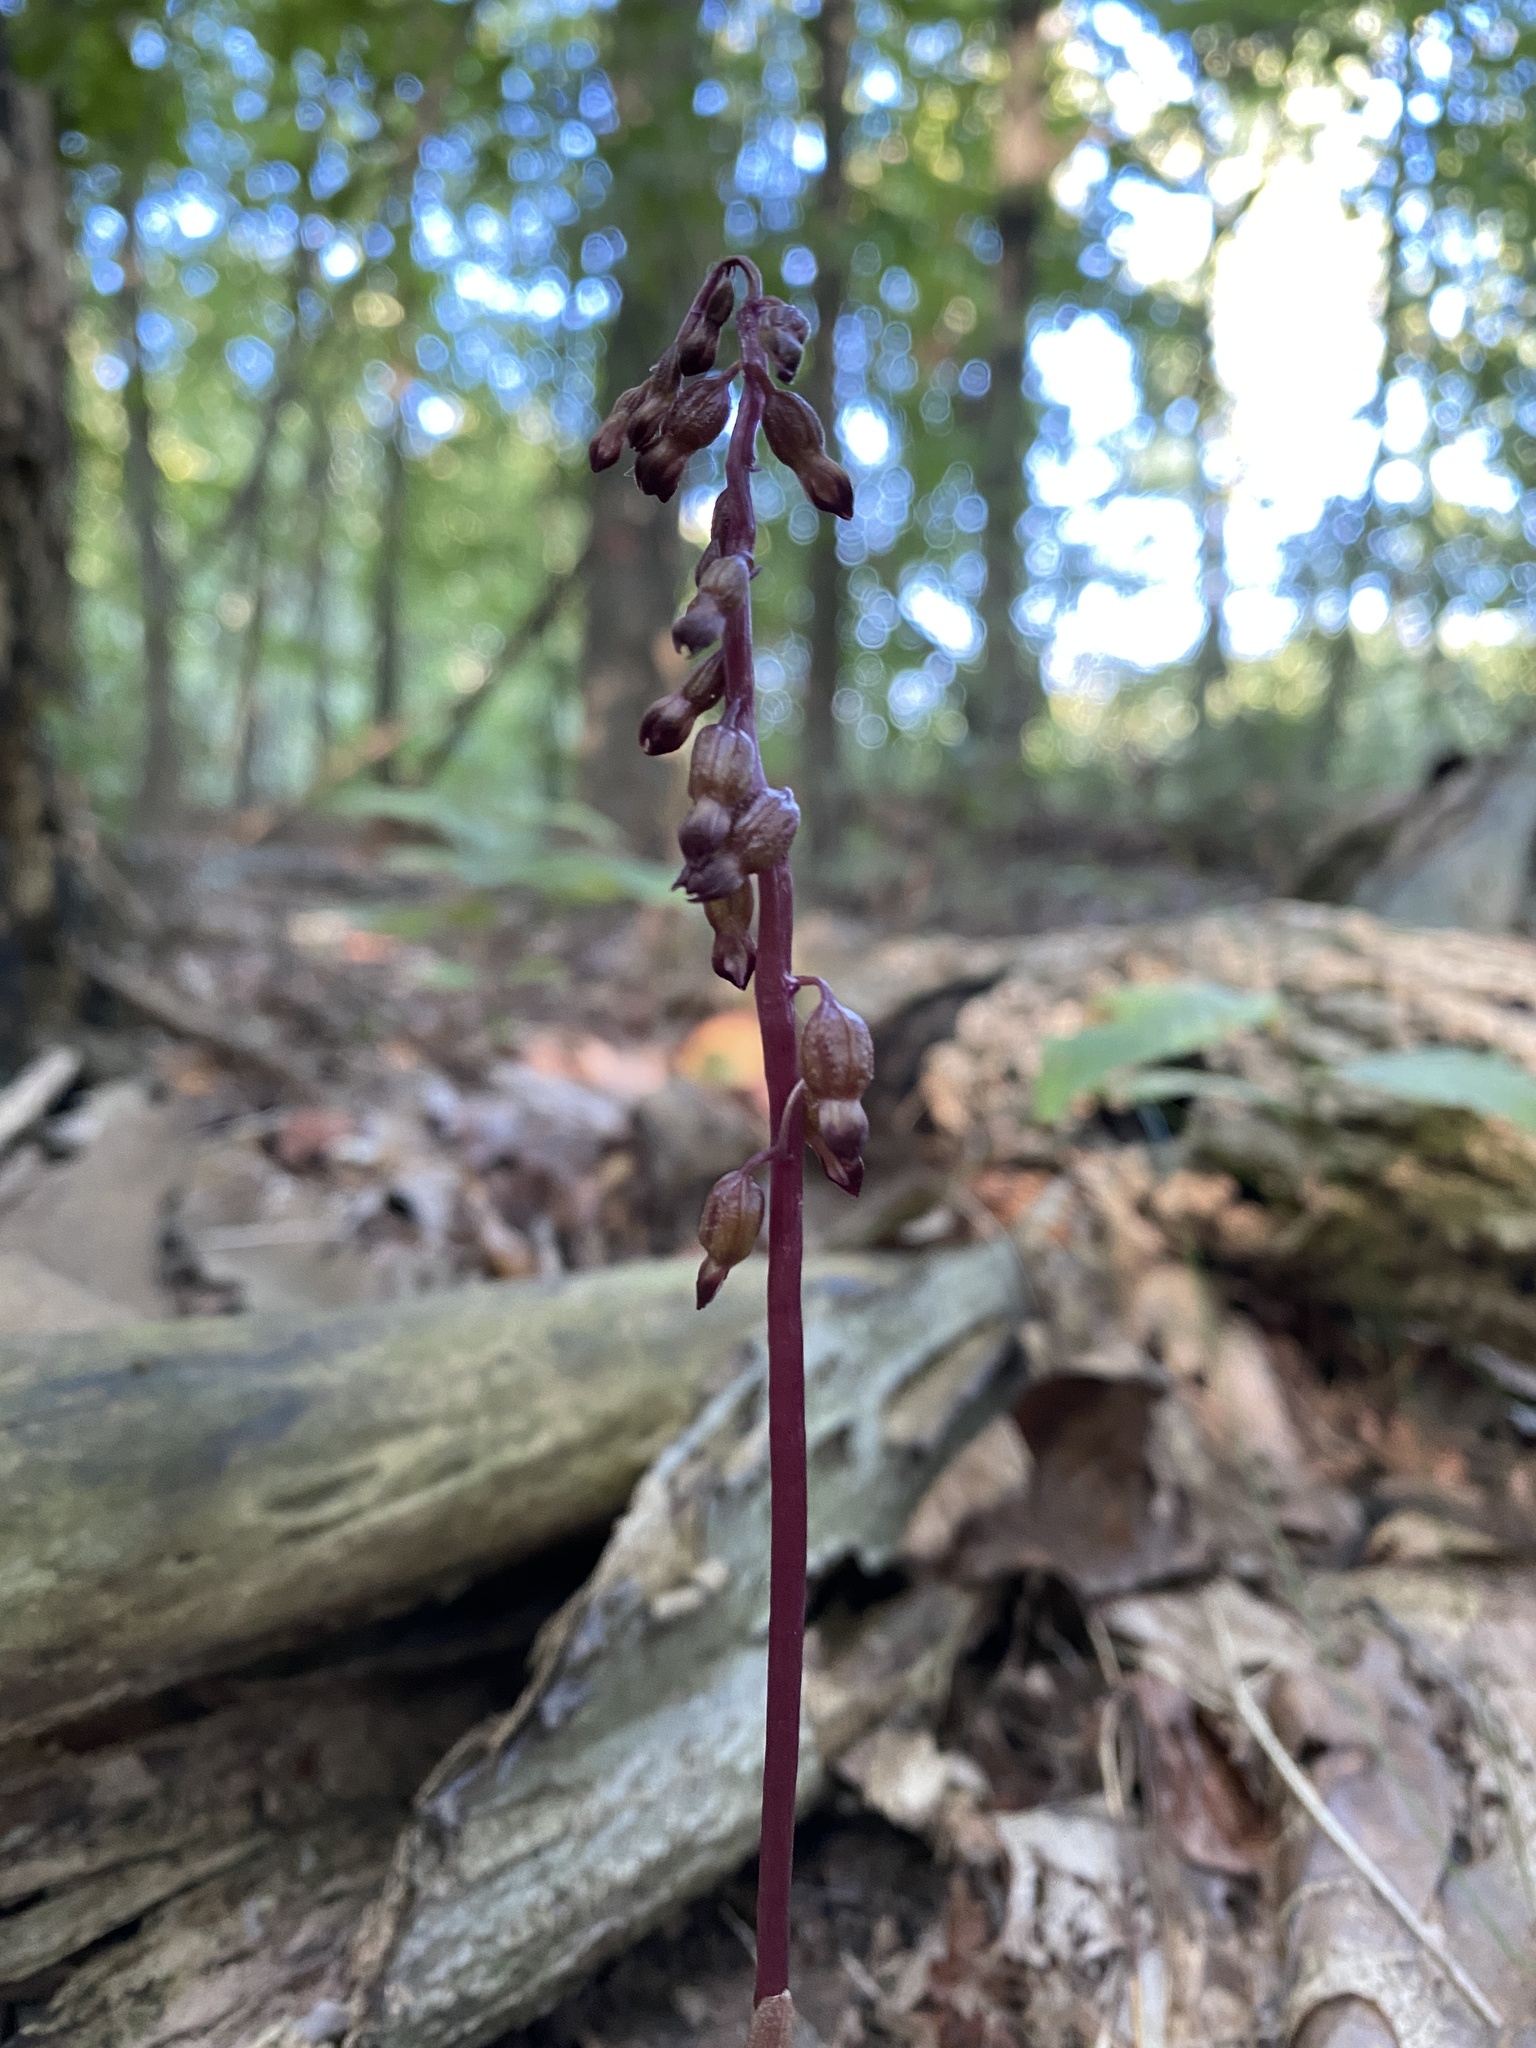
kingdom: Plantae
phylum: Tracheophyta
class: Liliopsida
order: Asparagales
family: Orchidaceae
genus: Corallorhiza
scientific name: Corallorhiza odontorhiza
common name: Autumn coralroot
